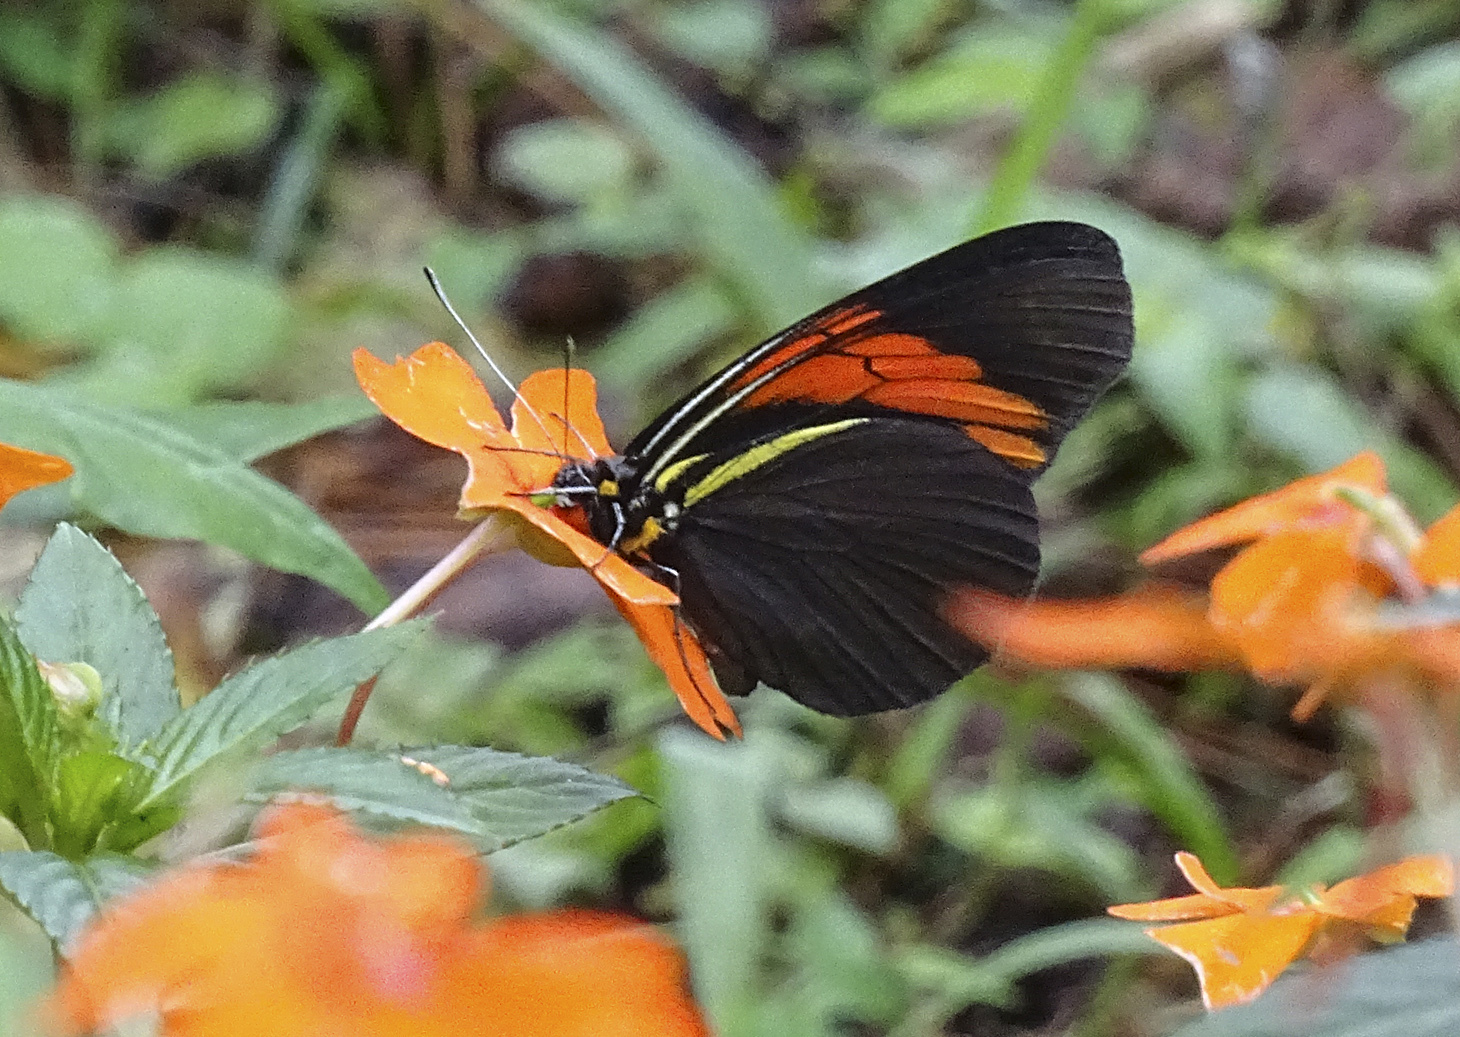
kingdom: Animalia
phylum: Arthropoda
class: Insecta
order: Lepidoptera
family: Pieridae
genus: Pereute
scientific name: Pereute charops
